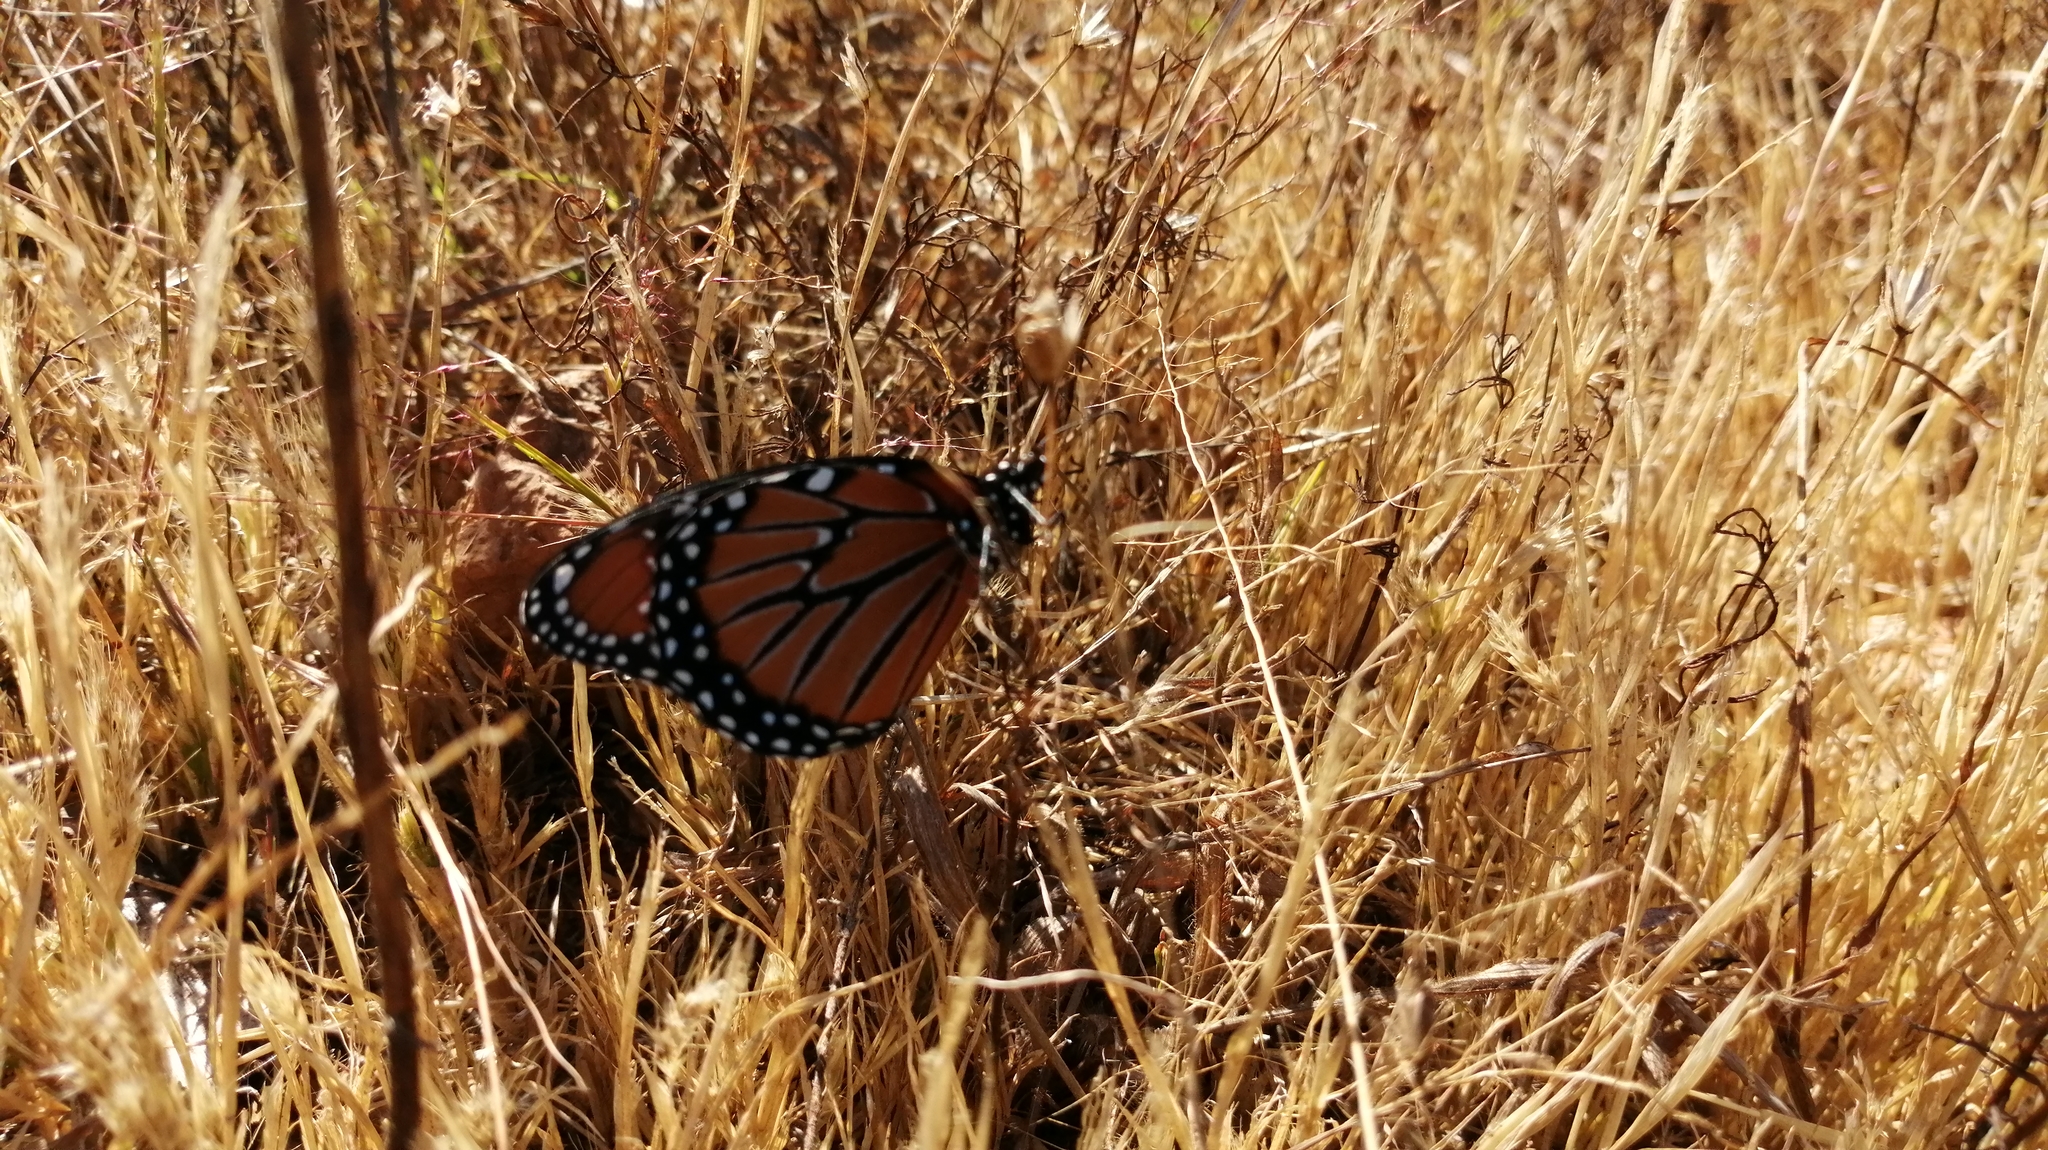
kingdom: Animalia
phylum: Arthropoda
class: Insecta
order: Lepidoptera
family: Nymphalidae
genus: Danaus
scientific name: Danaus gilippus
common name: Queen
